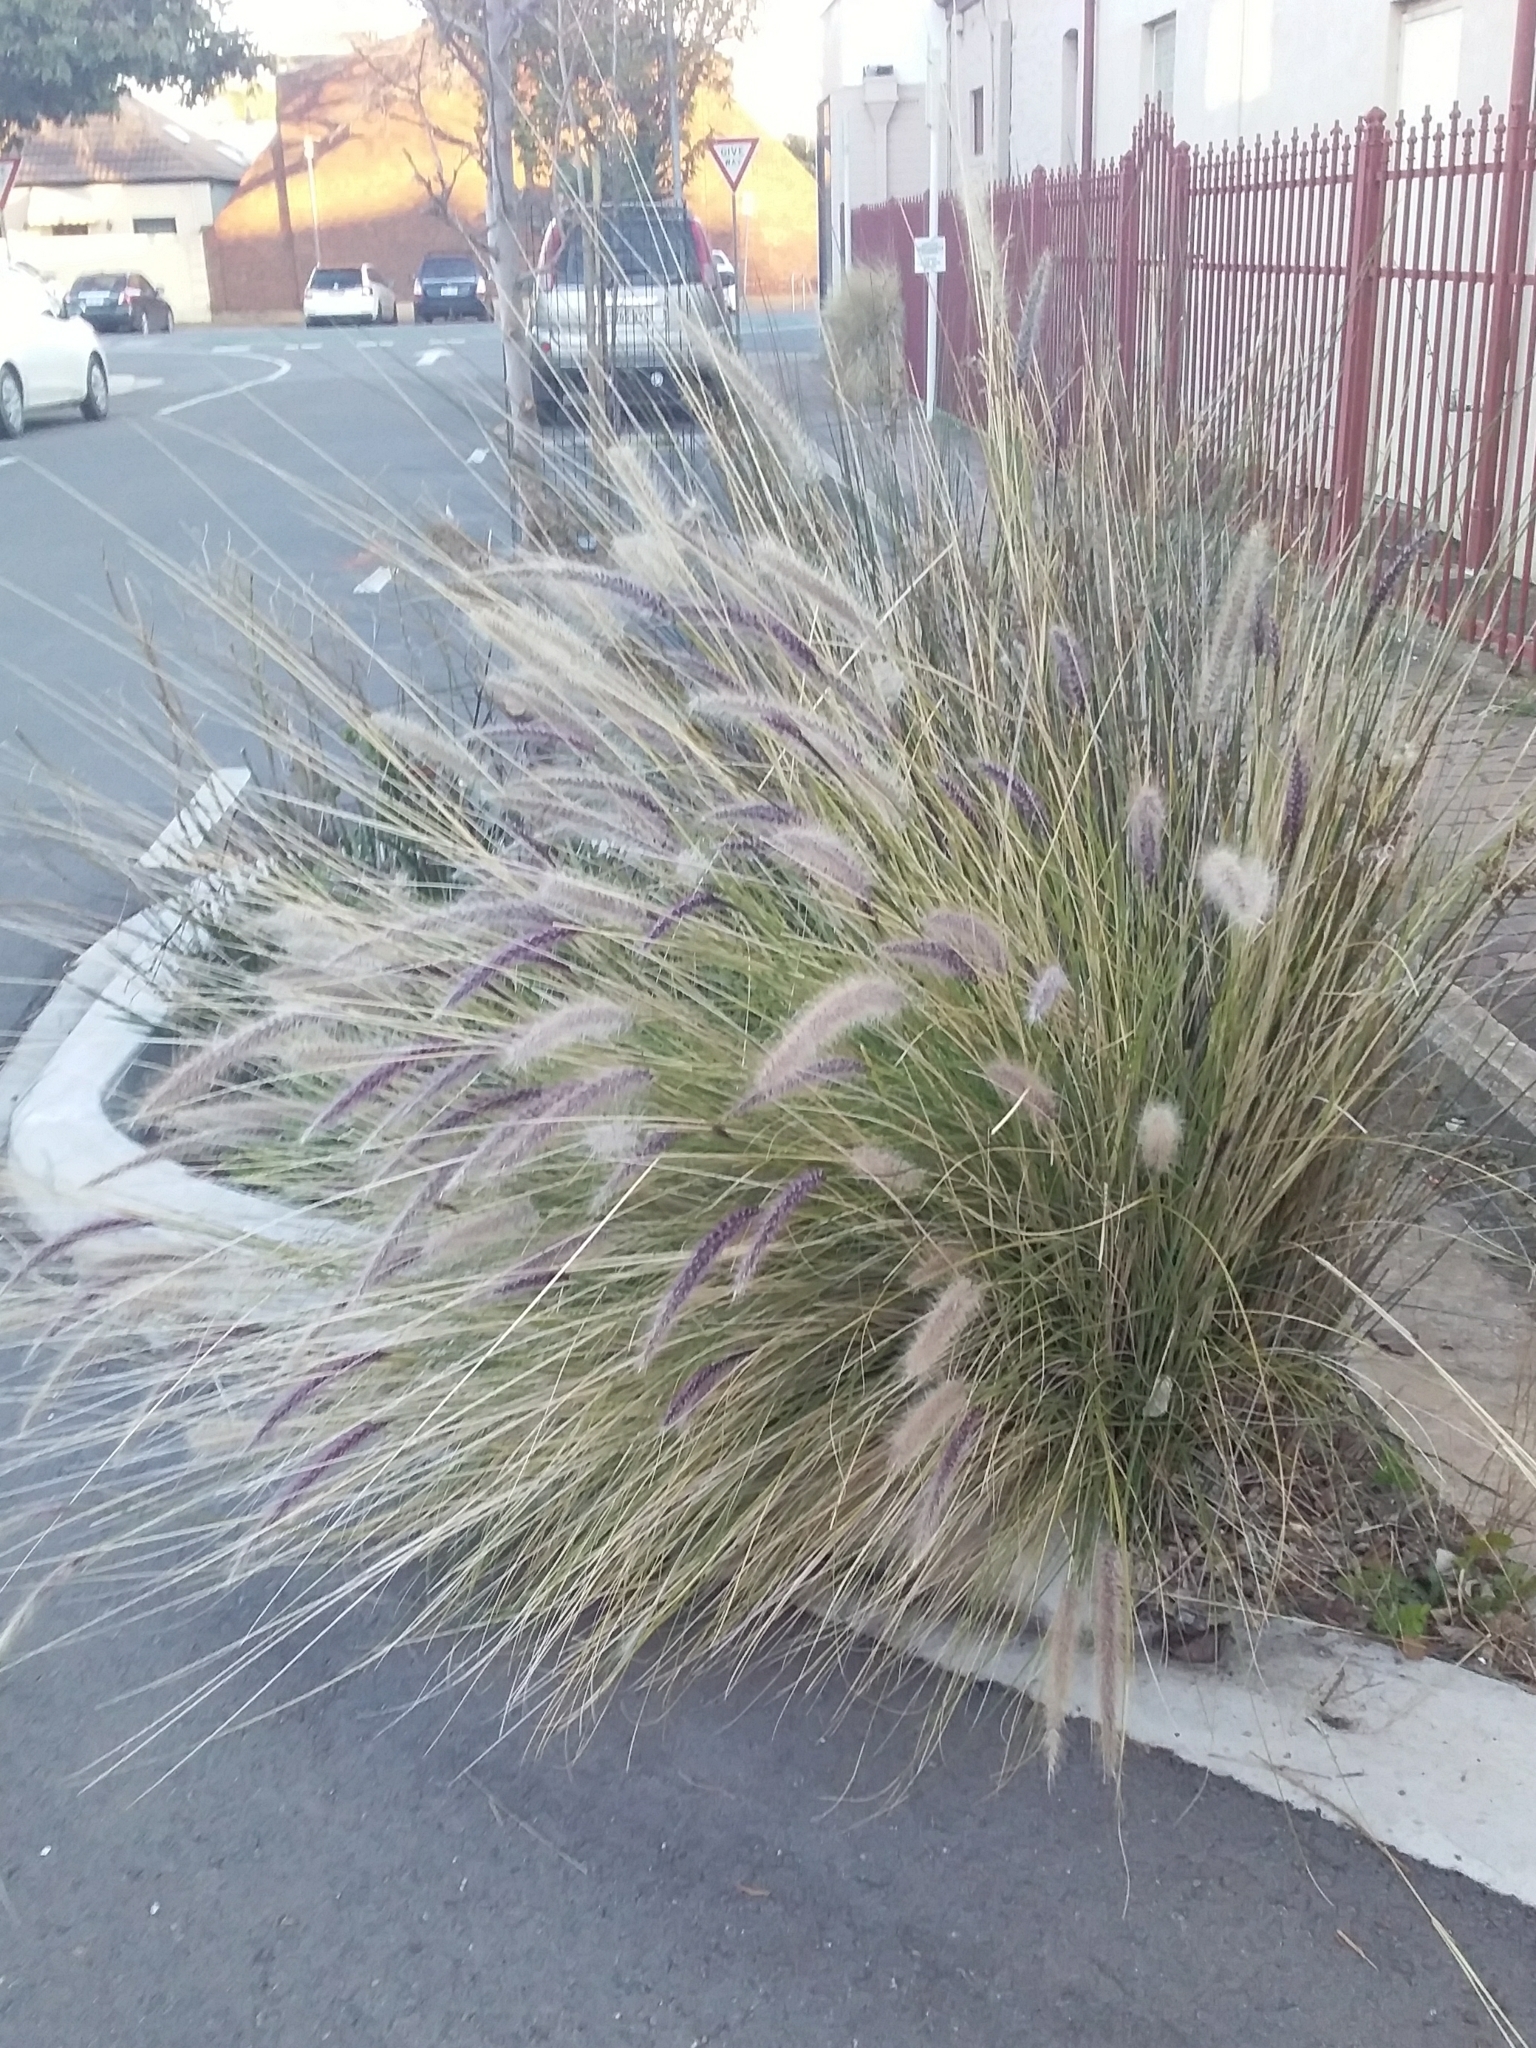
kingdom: Plantae
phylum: Tracheophyta
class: Liliopsida
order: Poales
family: Poaceae
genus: Cenchrus
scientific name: Cenchrus setaceus
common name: Crimson fountaingrass
